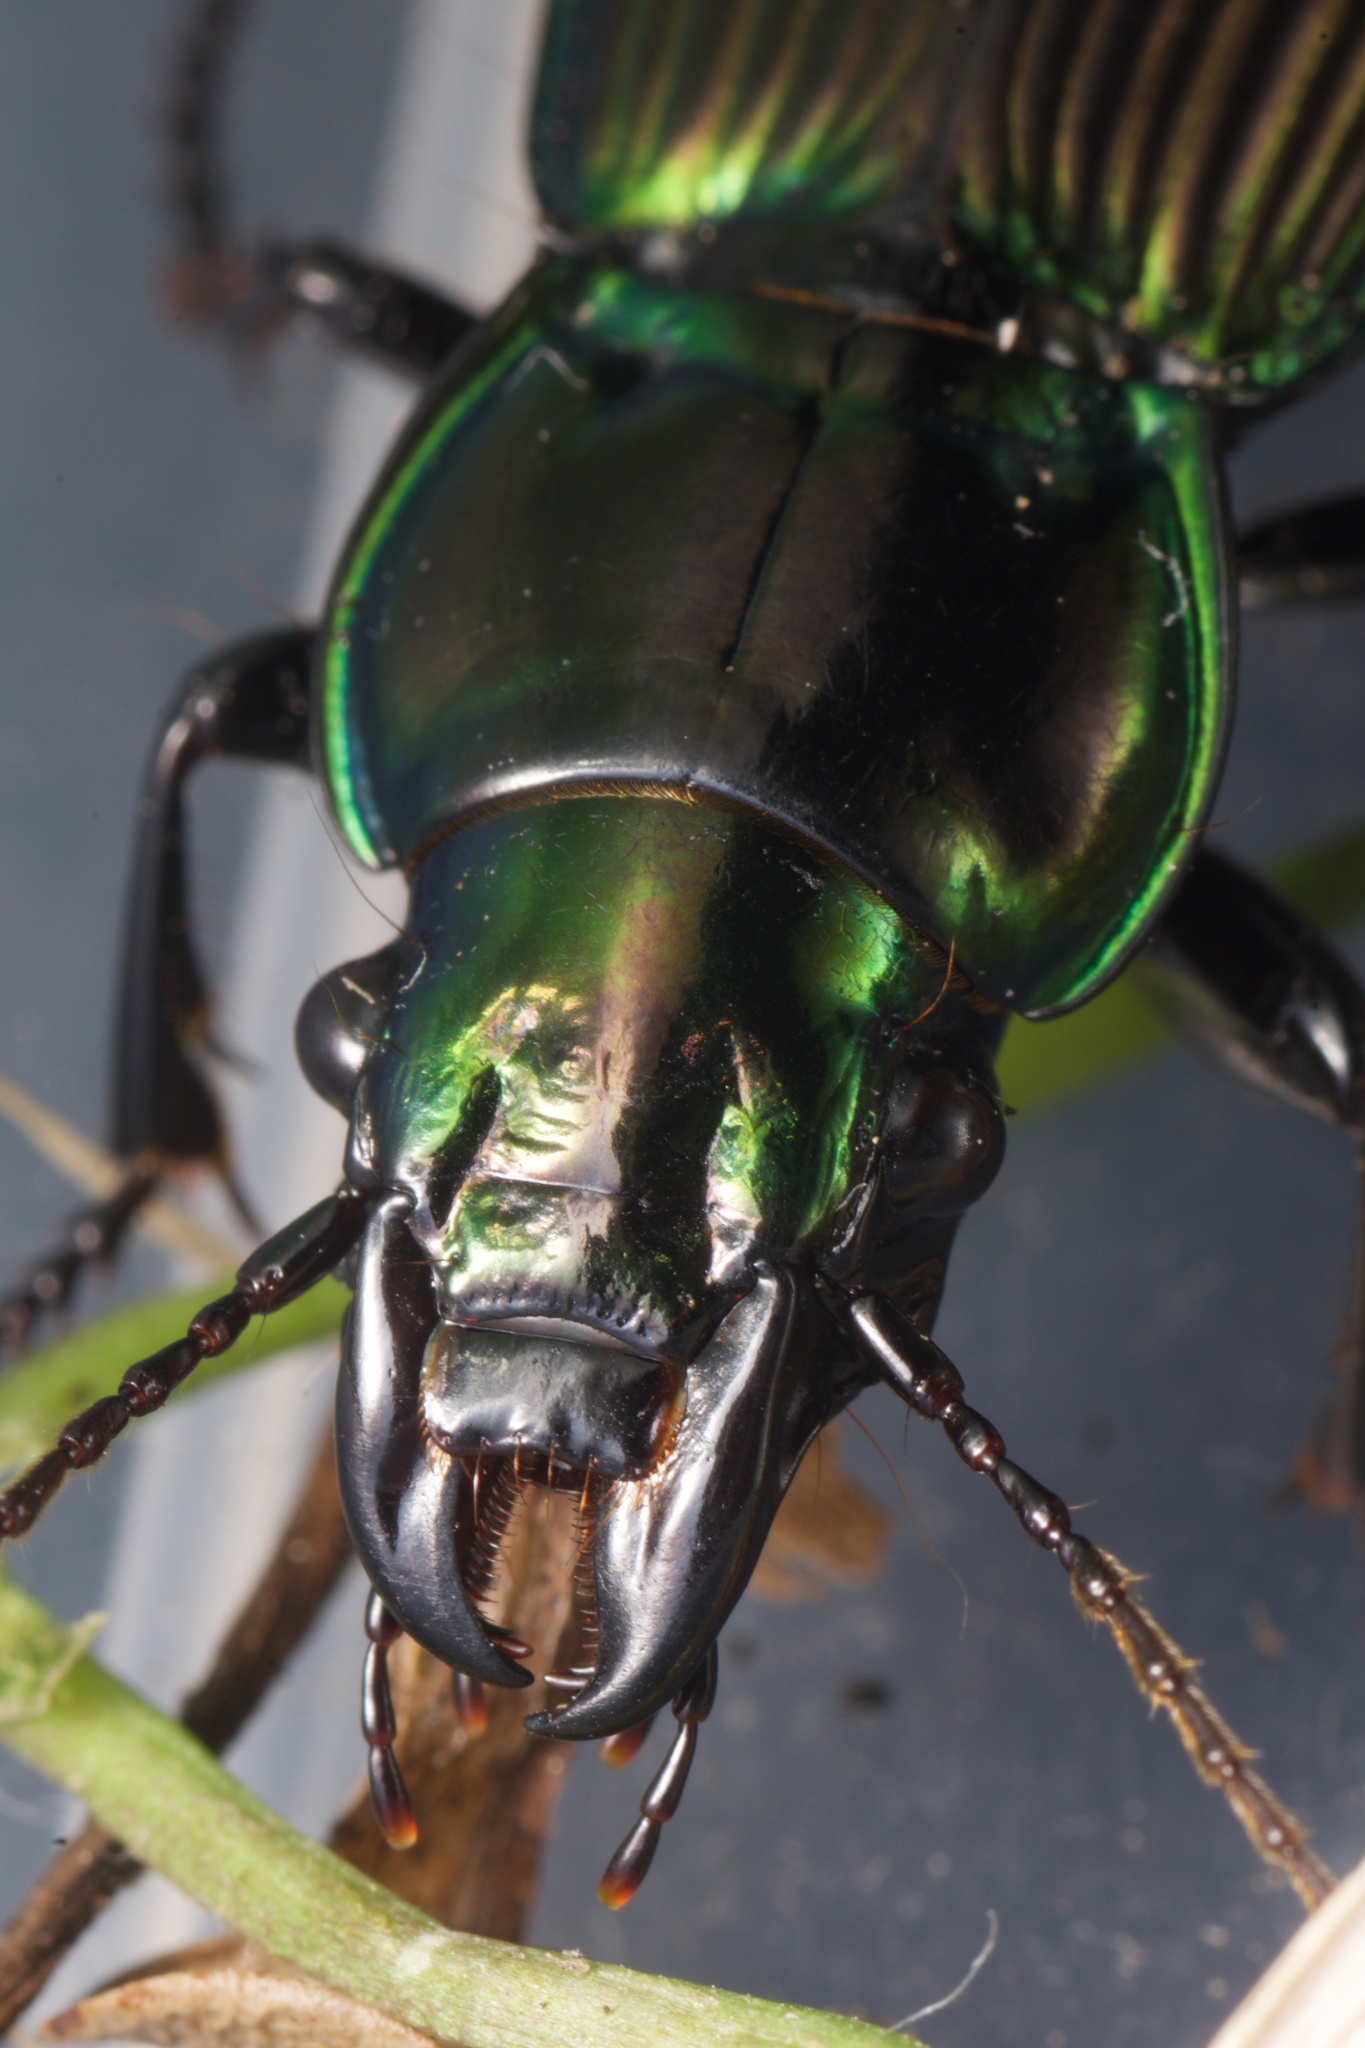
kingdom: Animalia
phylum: Arthropoda
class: Insecta
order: Coleoptera
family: Carabidae
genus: Megadromus
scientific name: Megadromus antarcticus
